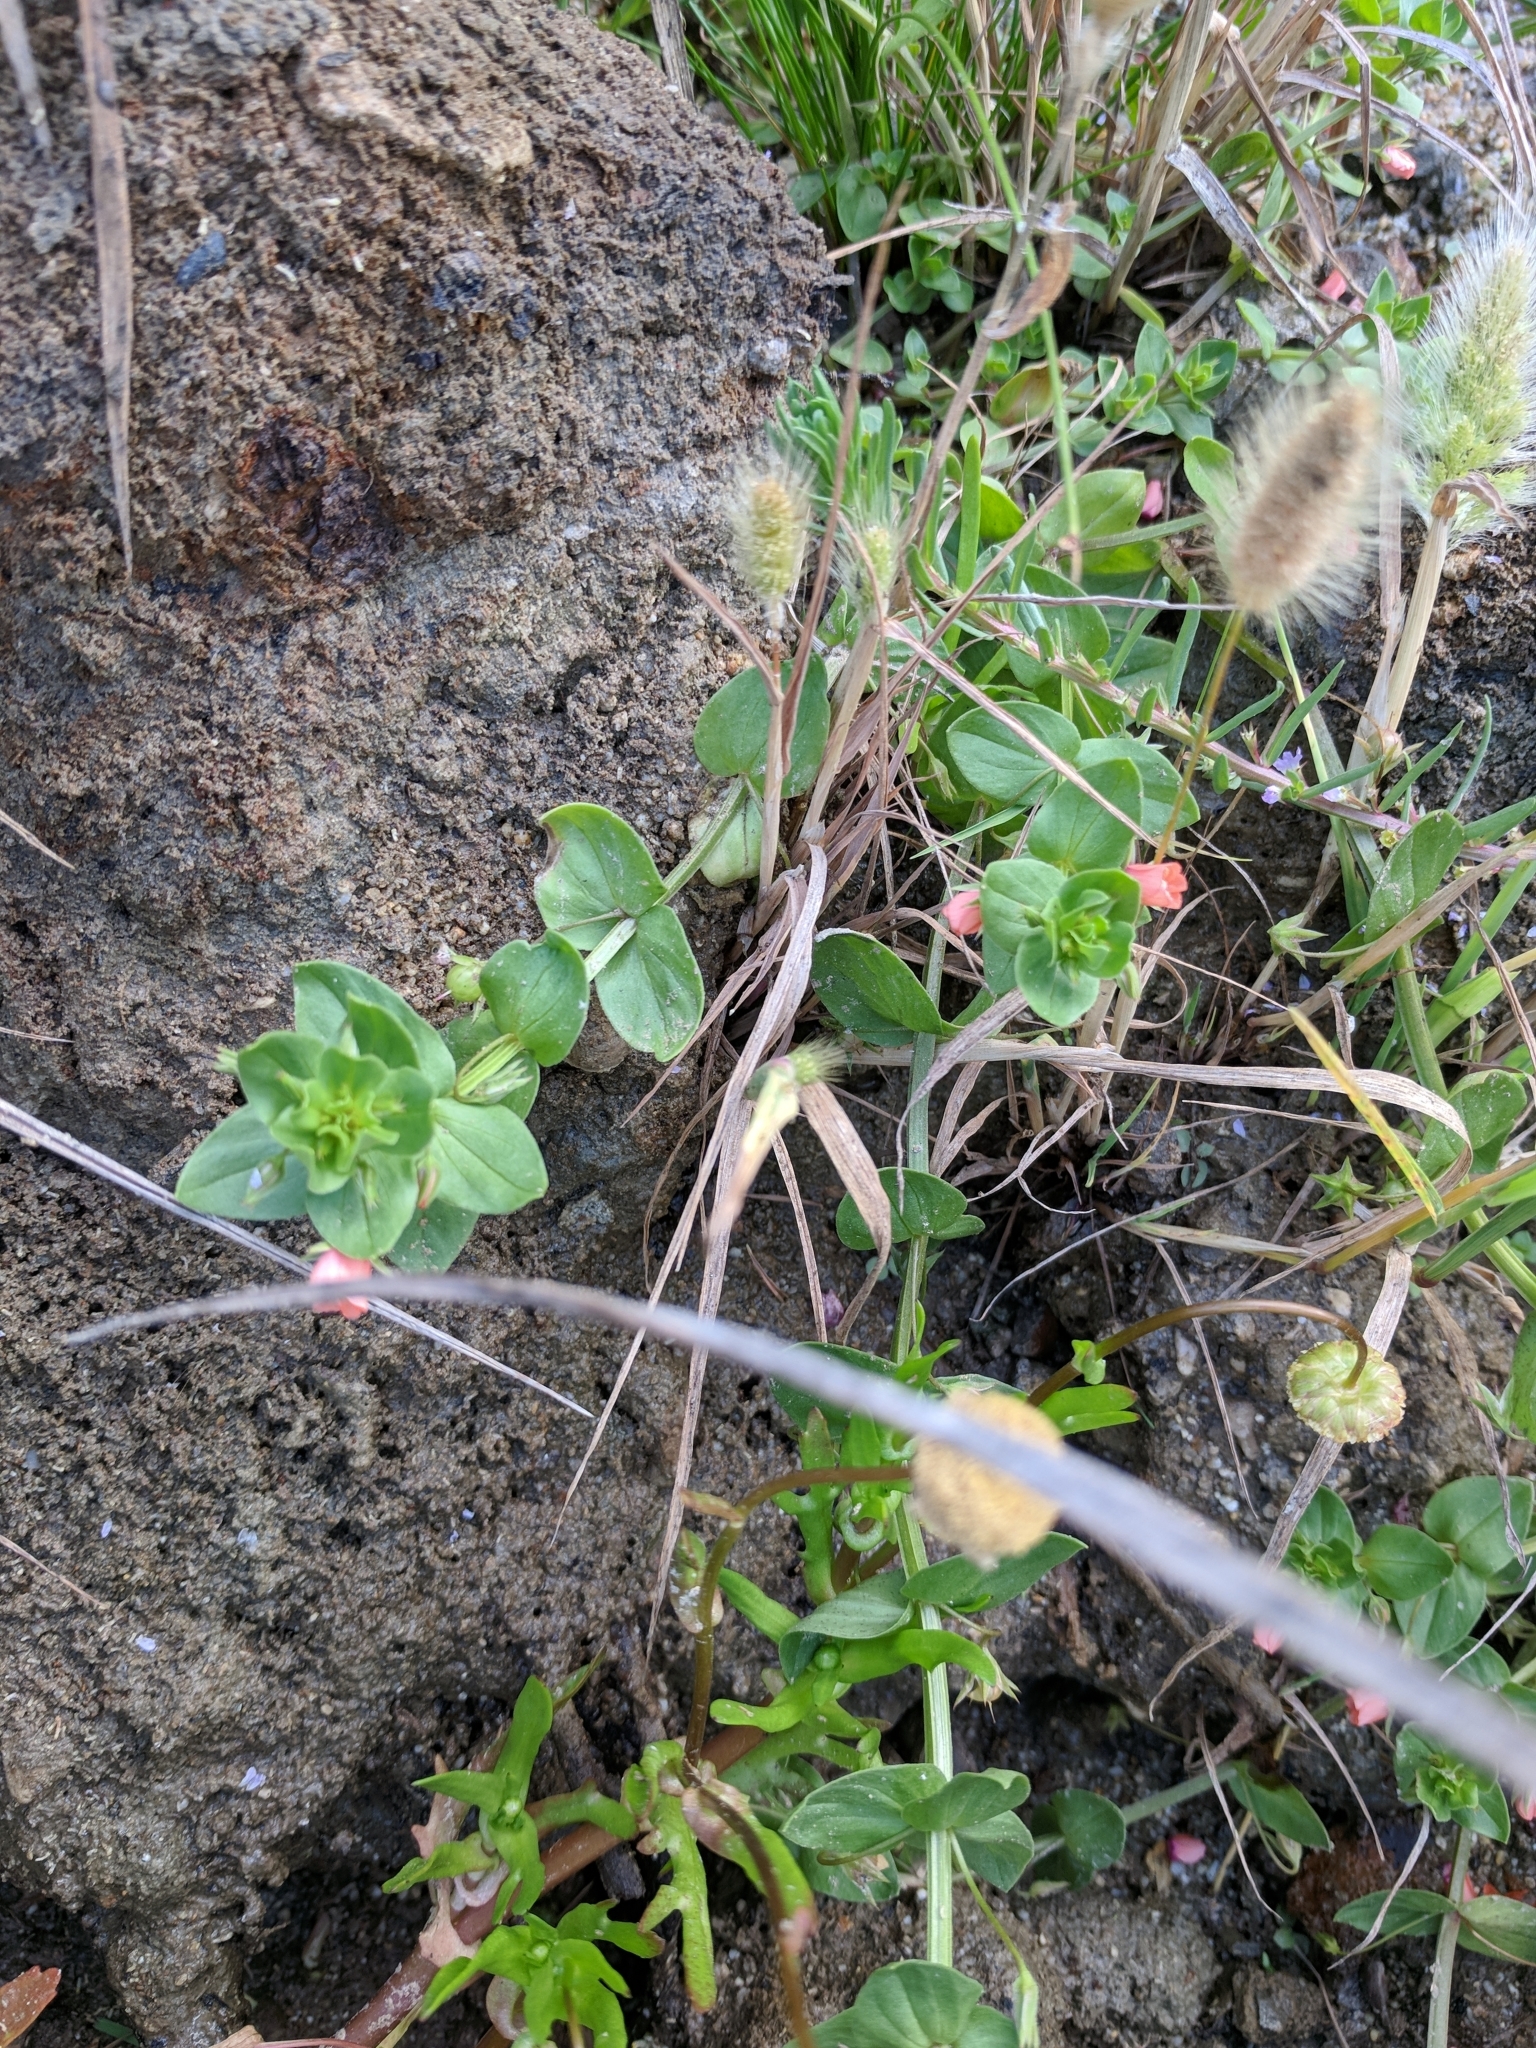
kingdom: Plantae
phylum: Tracheophyta
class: Magnoliopsida
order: Ericales
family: Primulaceae
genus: Lysimachia
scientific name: Lysimachia arvensis
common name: Scarlet pimpernel
